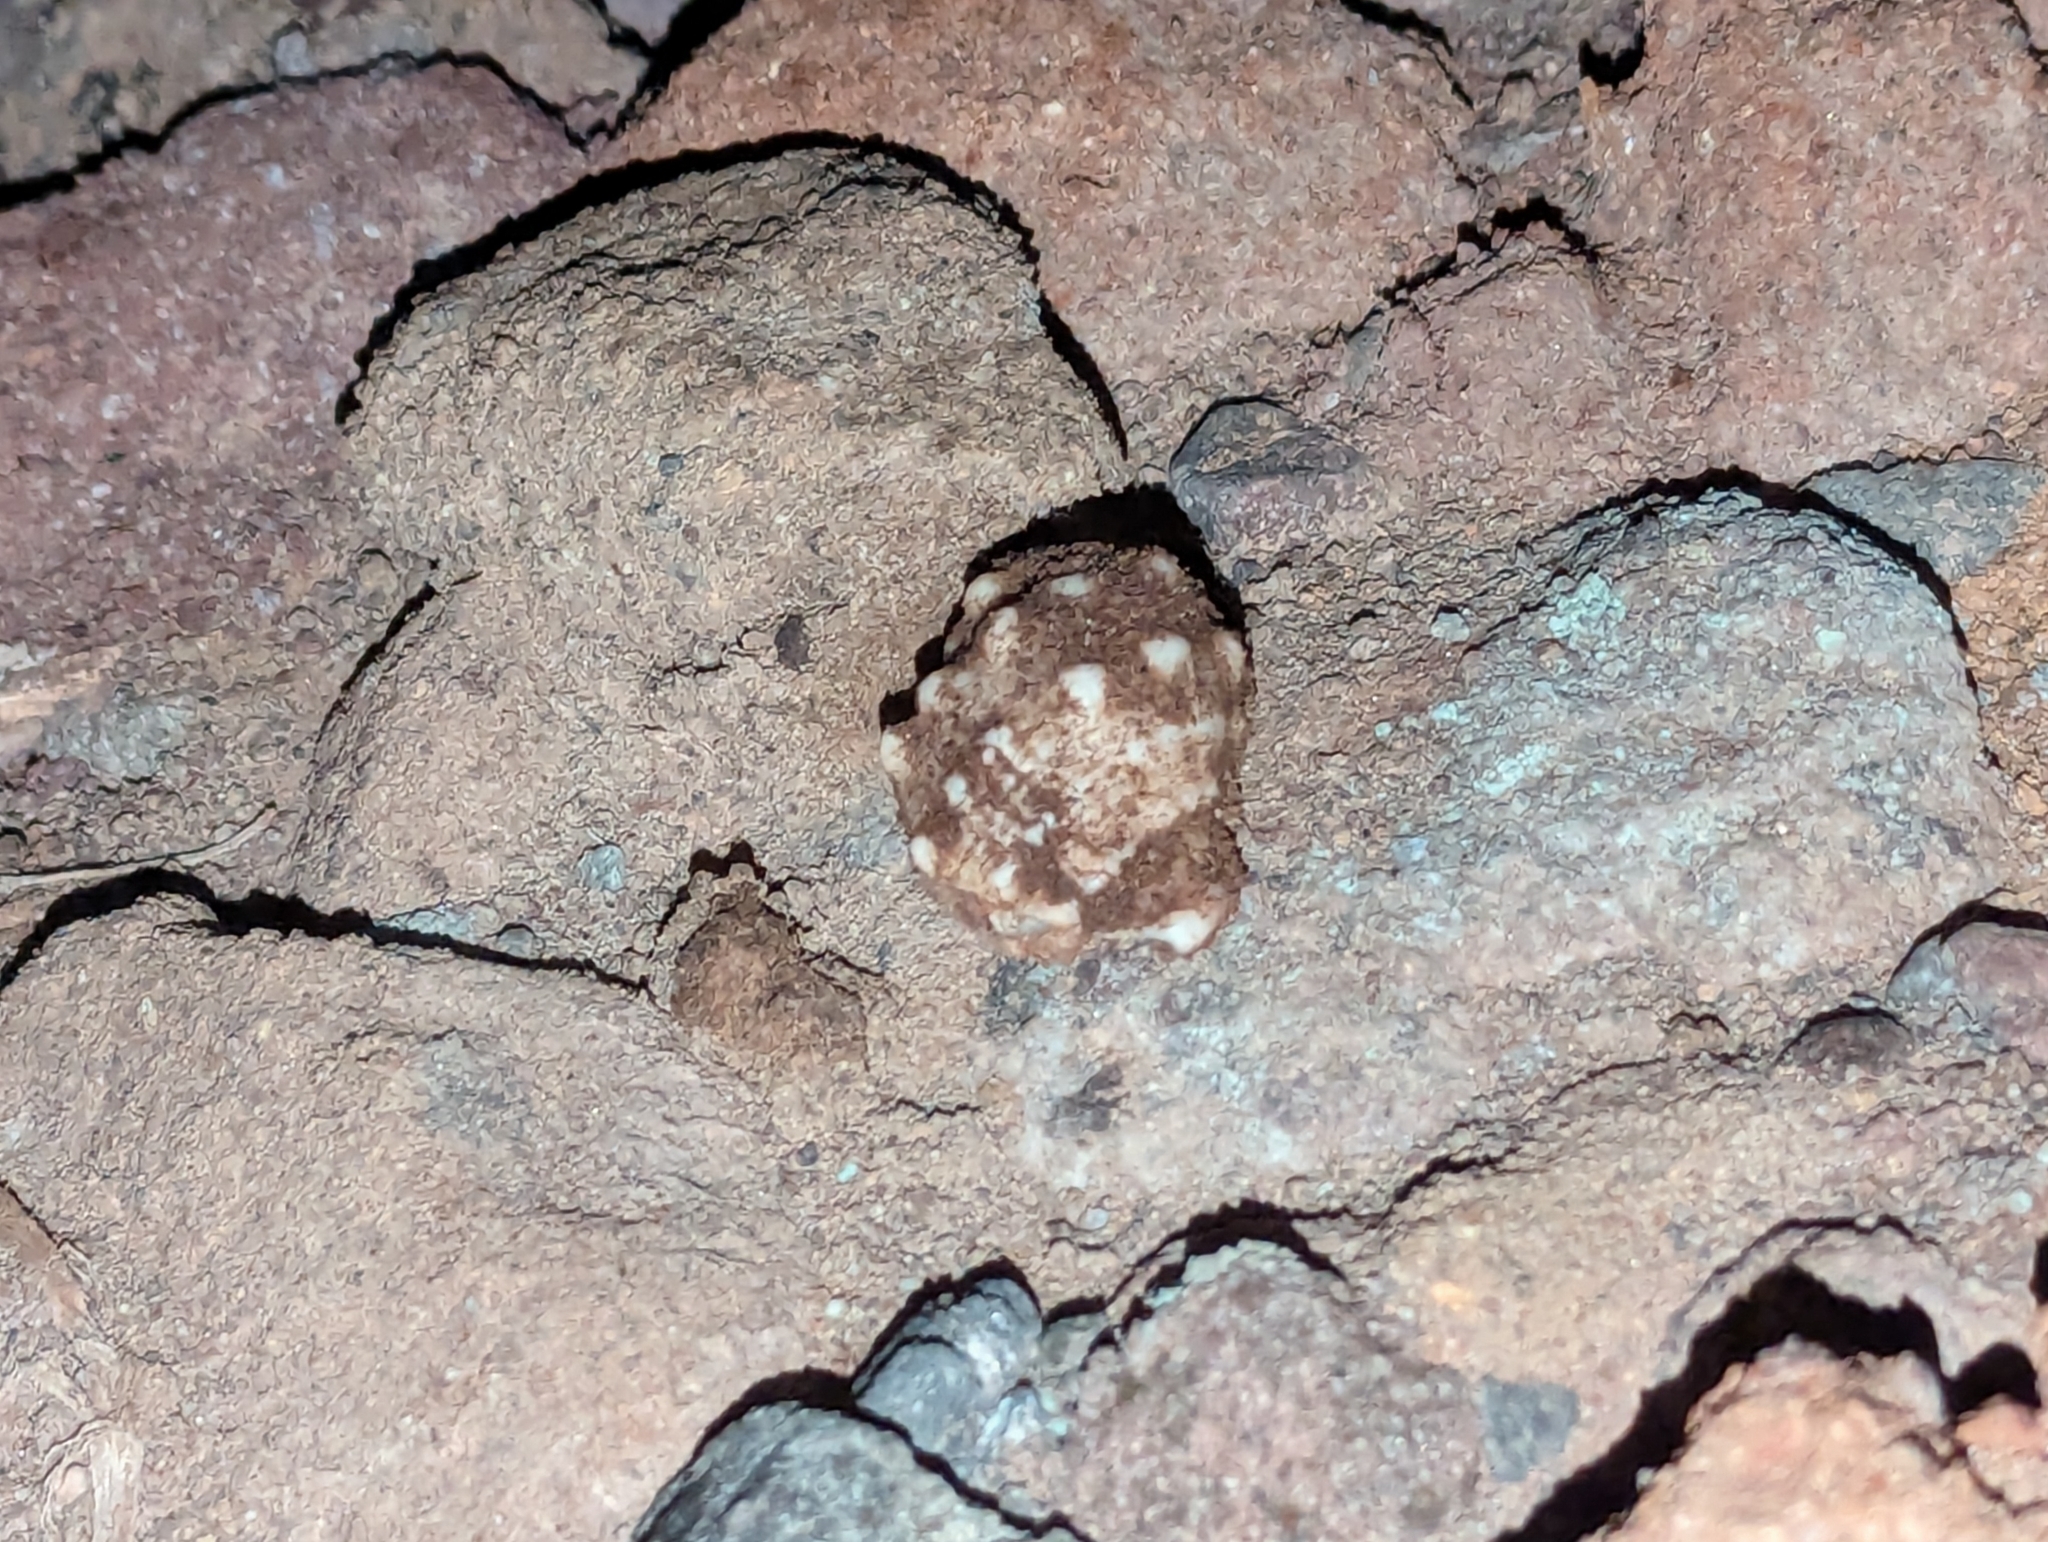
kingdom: Animalia
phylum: Arthropoda
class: Malacostraca
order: Decapoda
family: Coenobitidae
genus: Coenobita
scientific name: Coenobita compressus
